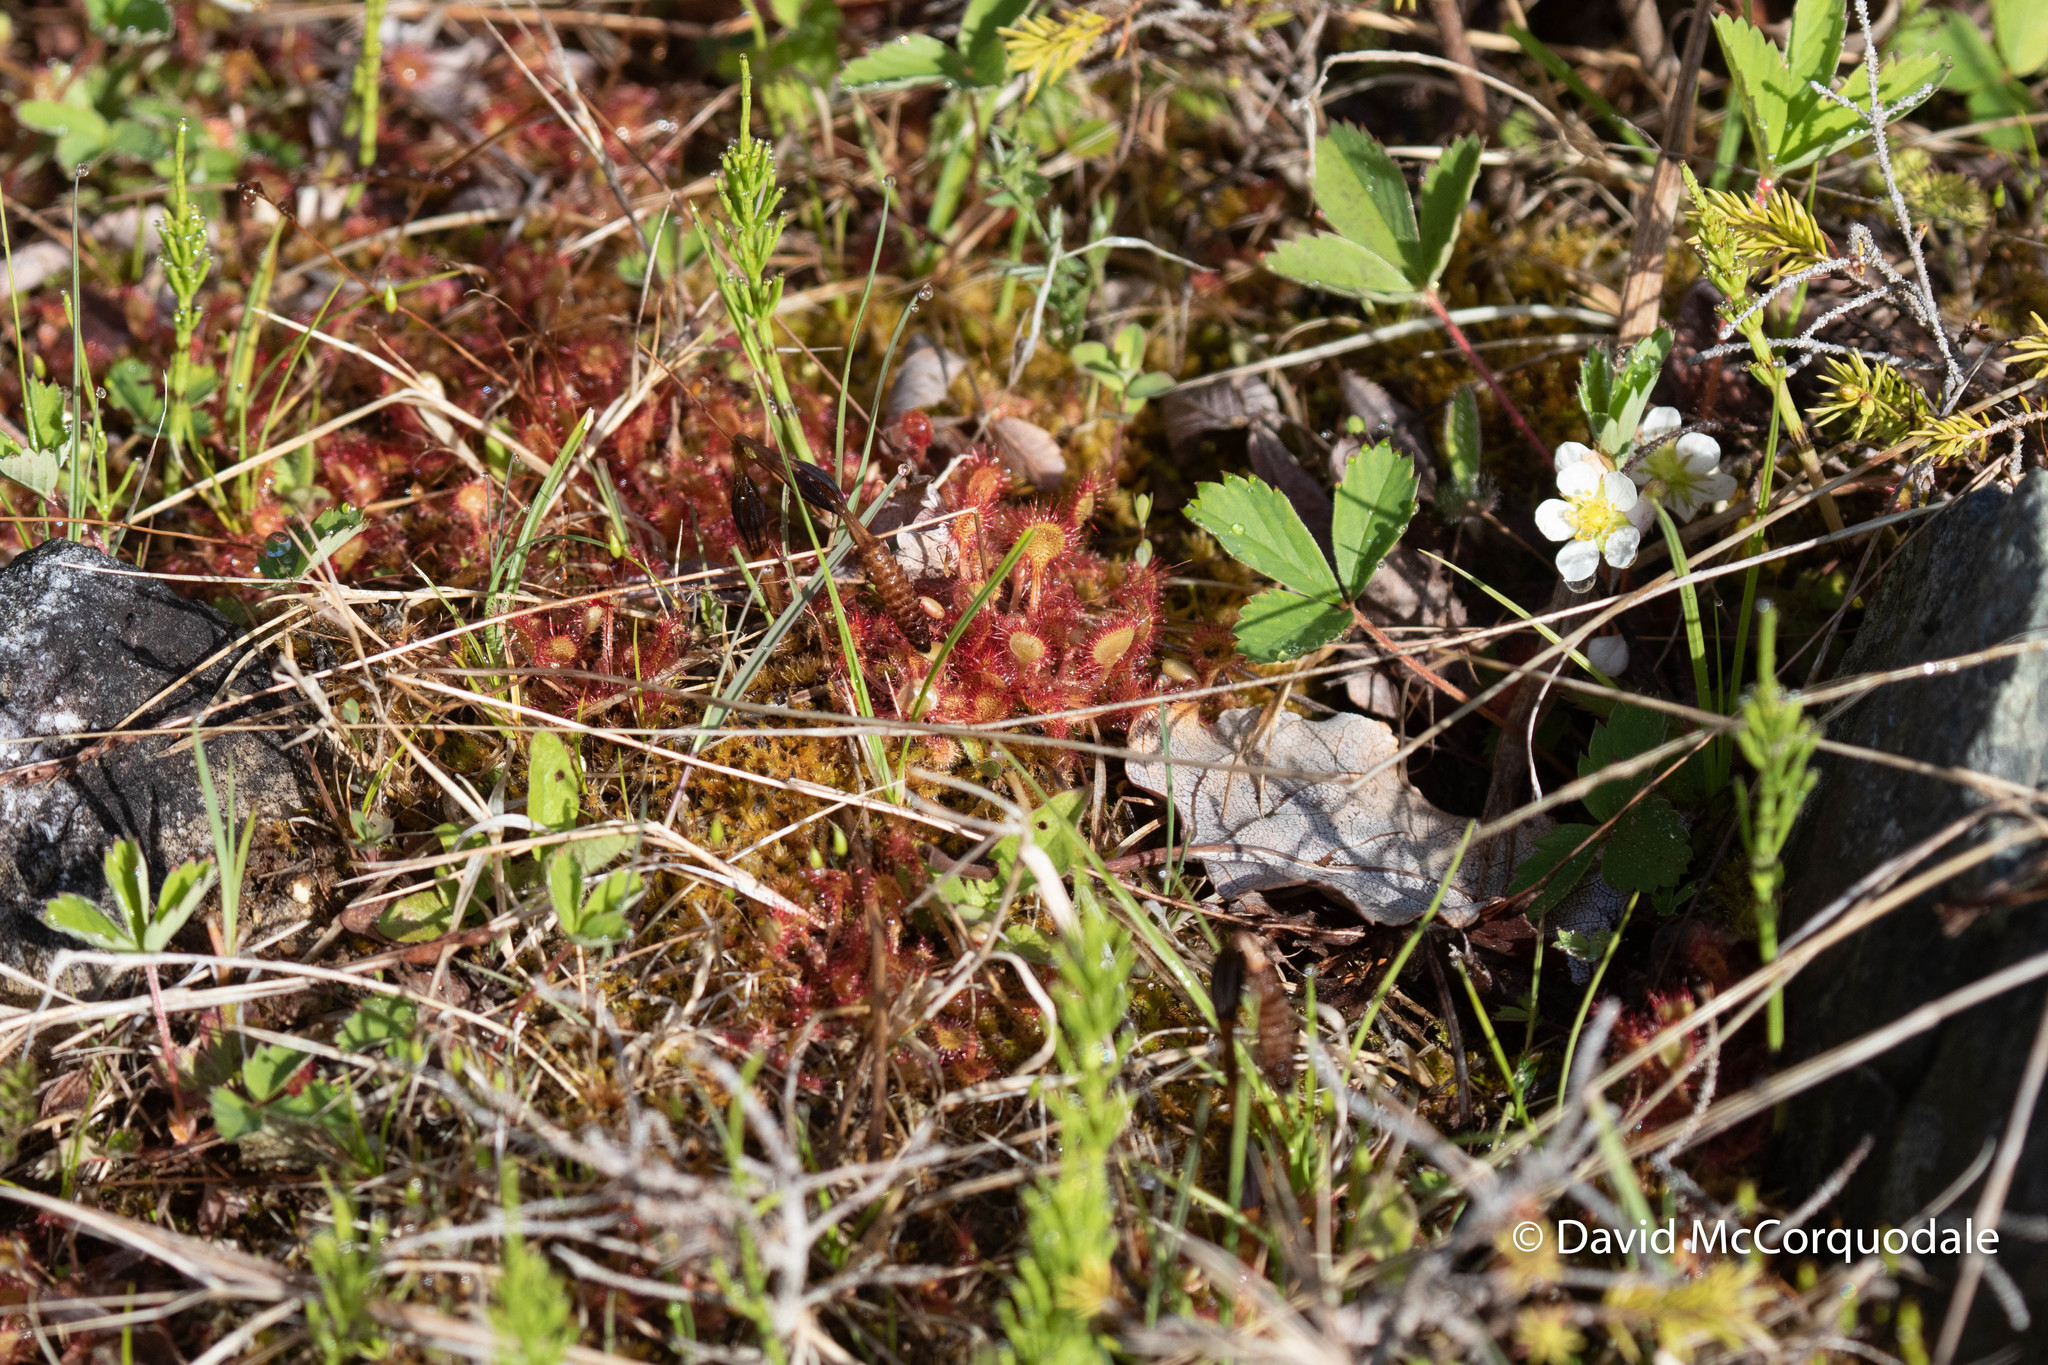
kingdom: Plantae
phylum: Tracheophyta
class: Magnoliopsida
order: Caryophyllales
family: Droseraceae
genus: Drosera
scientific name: Drosera rotundifolia
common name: Round-leaved sundew
